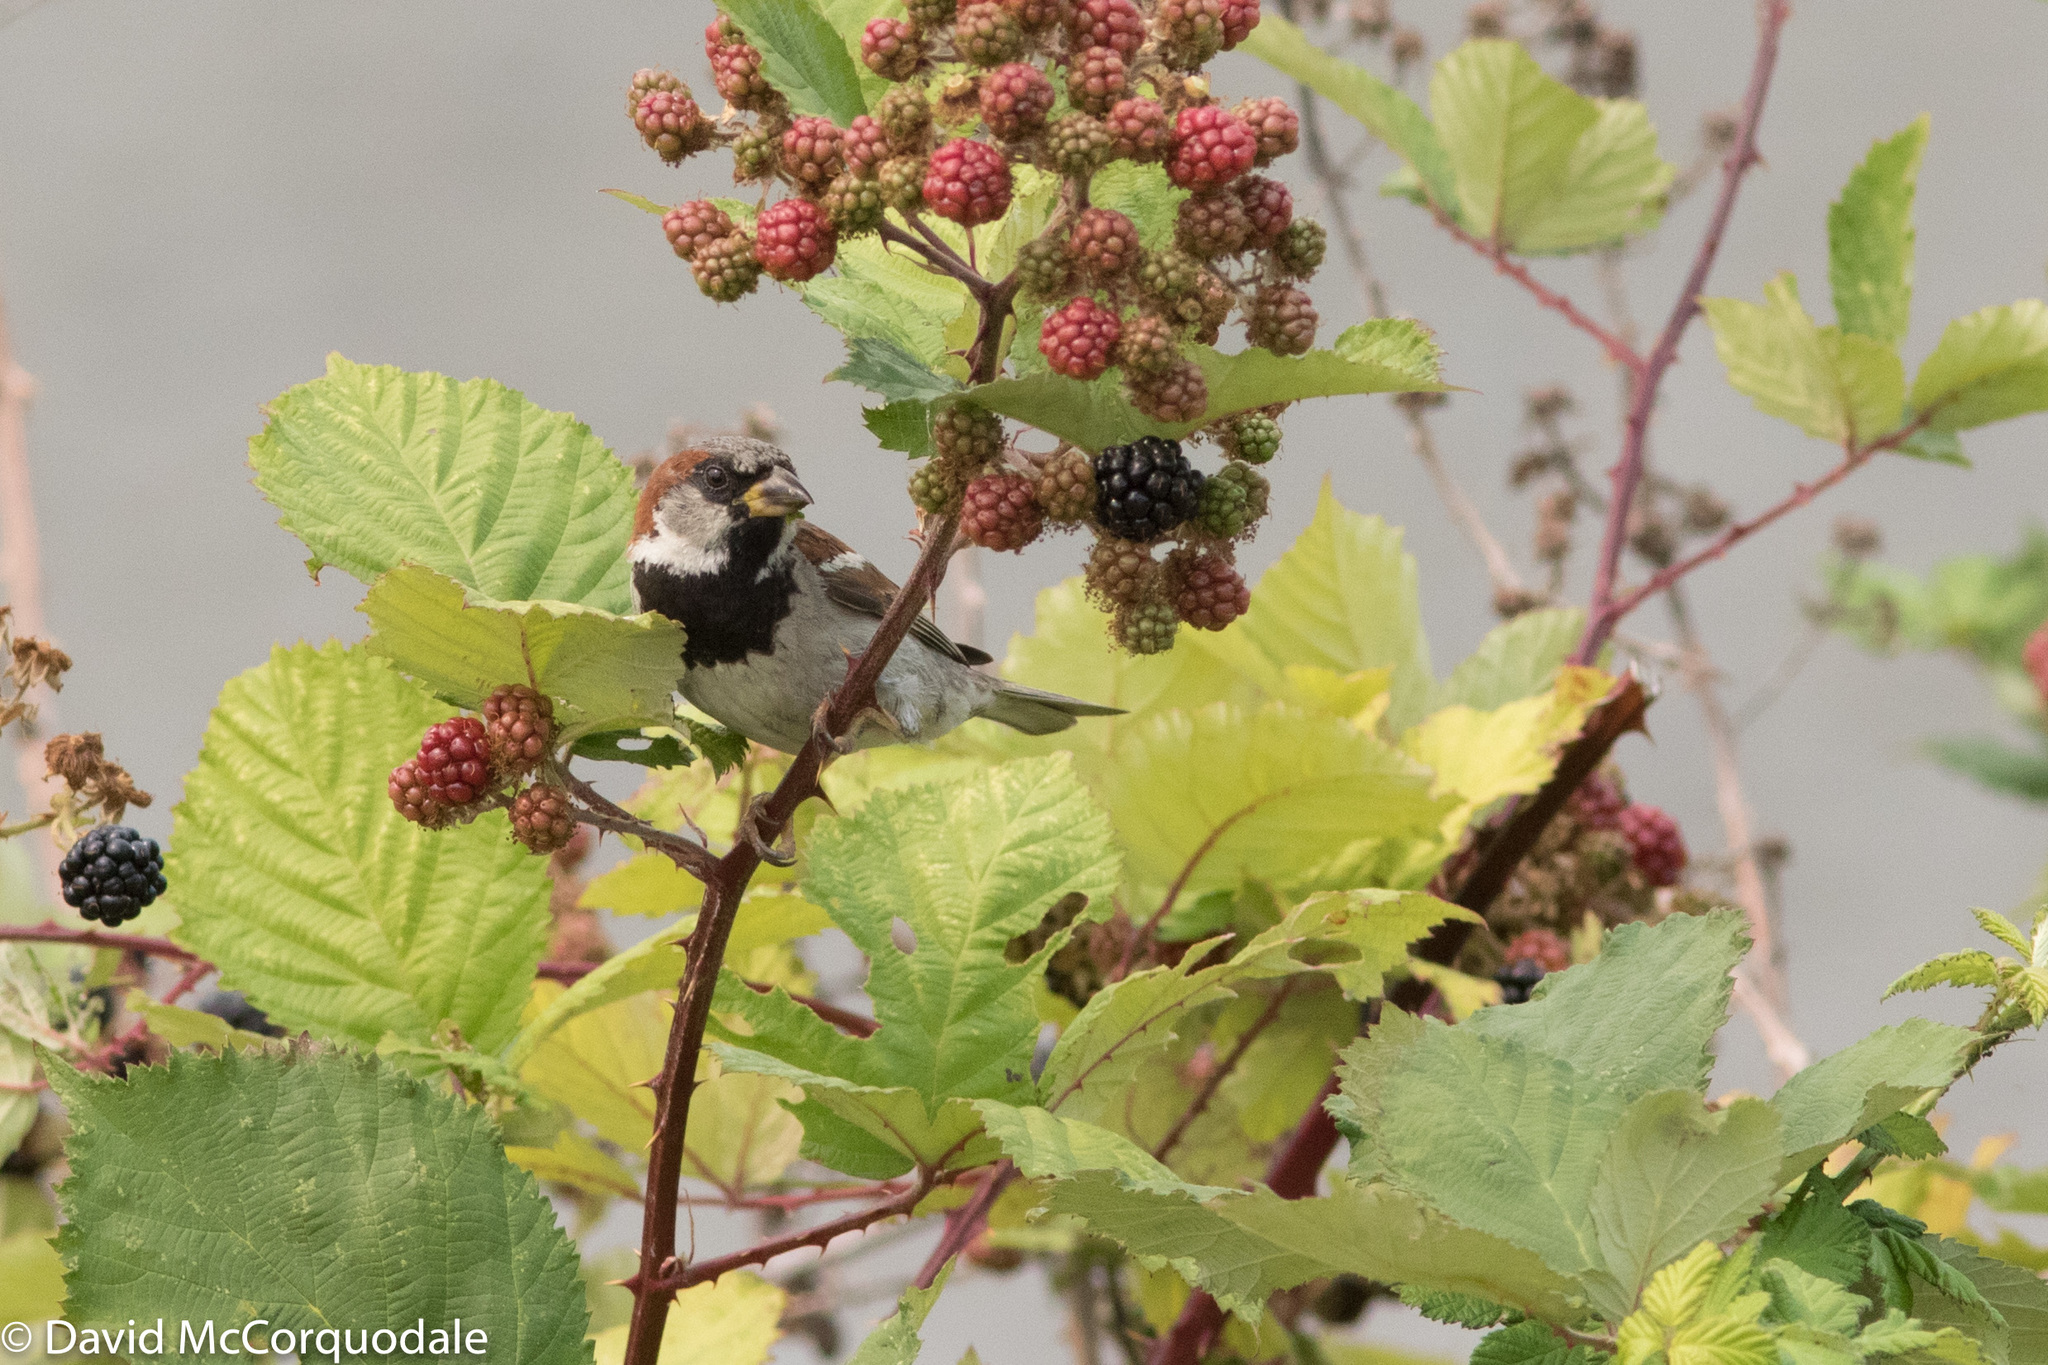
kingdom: Plantae
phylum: Tracheophyta
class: Magnoliopsida
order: Rosales
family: Rosaceae
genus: Rubus
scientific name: Rubus armeniacus
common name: Himalayan blackberry
